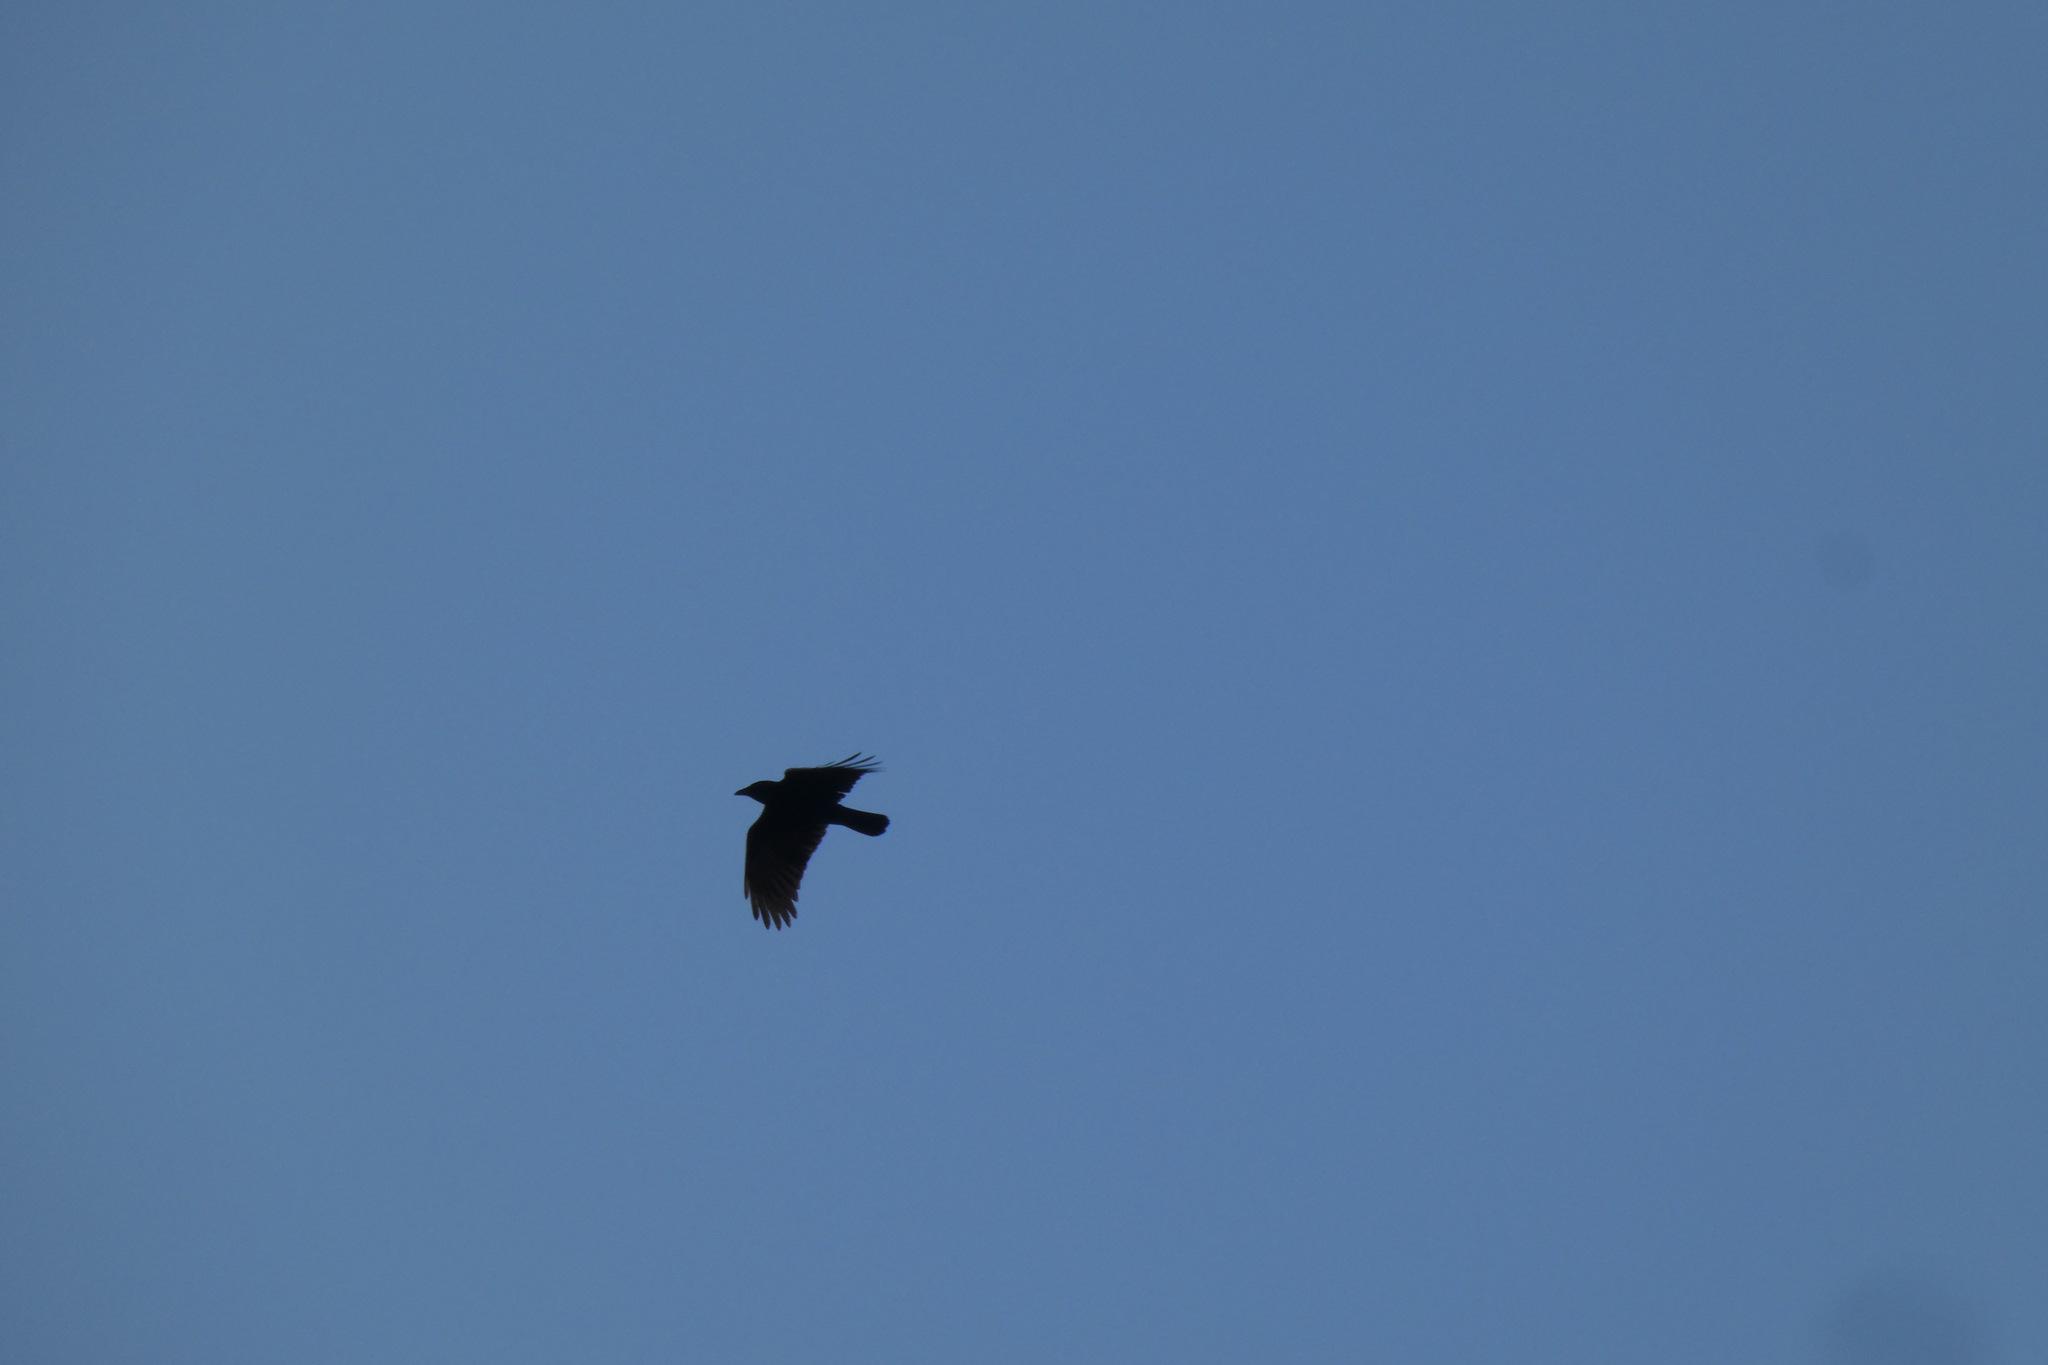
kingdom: Animalia
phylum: Chordata
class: Aves
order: Passeriformes
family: Corvidae
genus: Corvus
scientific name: Corvus brachyrhynchos
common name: American crow
